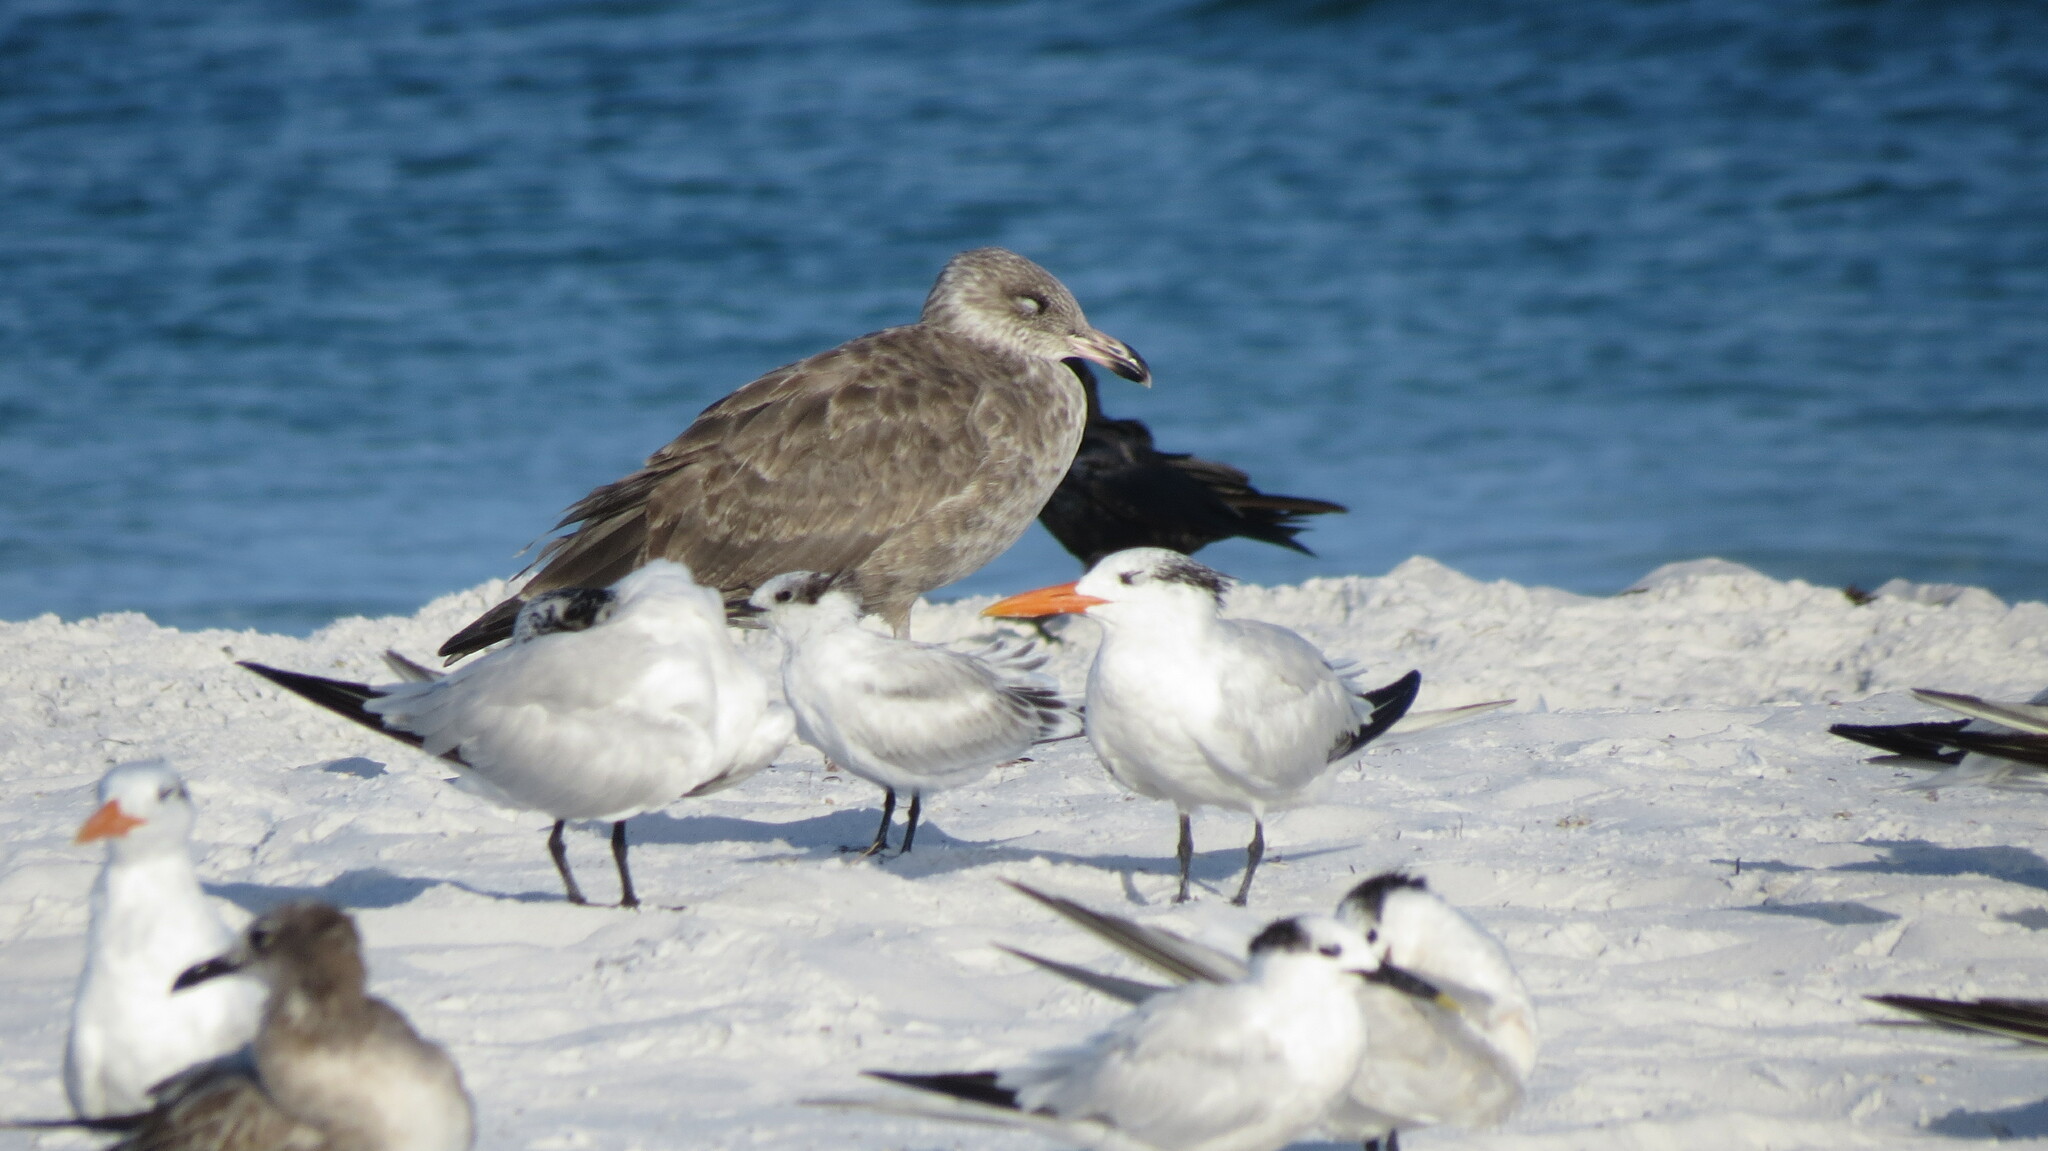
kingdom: Animalia
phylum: Chordata
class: Aves
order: Passeriformes
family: Corvidae
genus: Corvus
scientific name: Corvus ossifragus
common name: Fish crow
